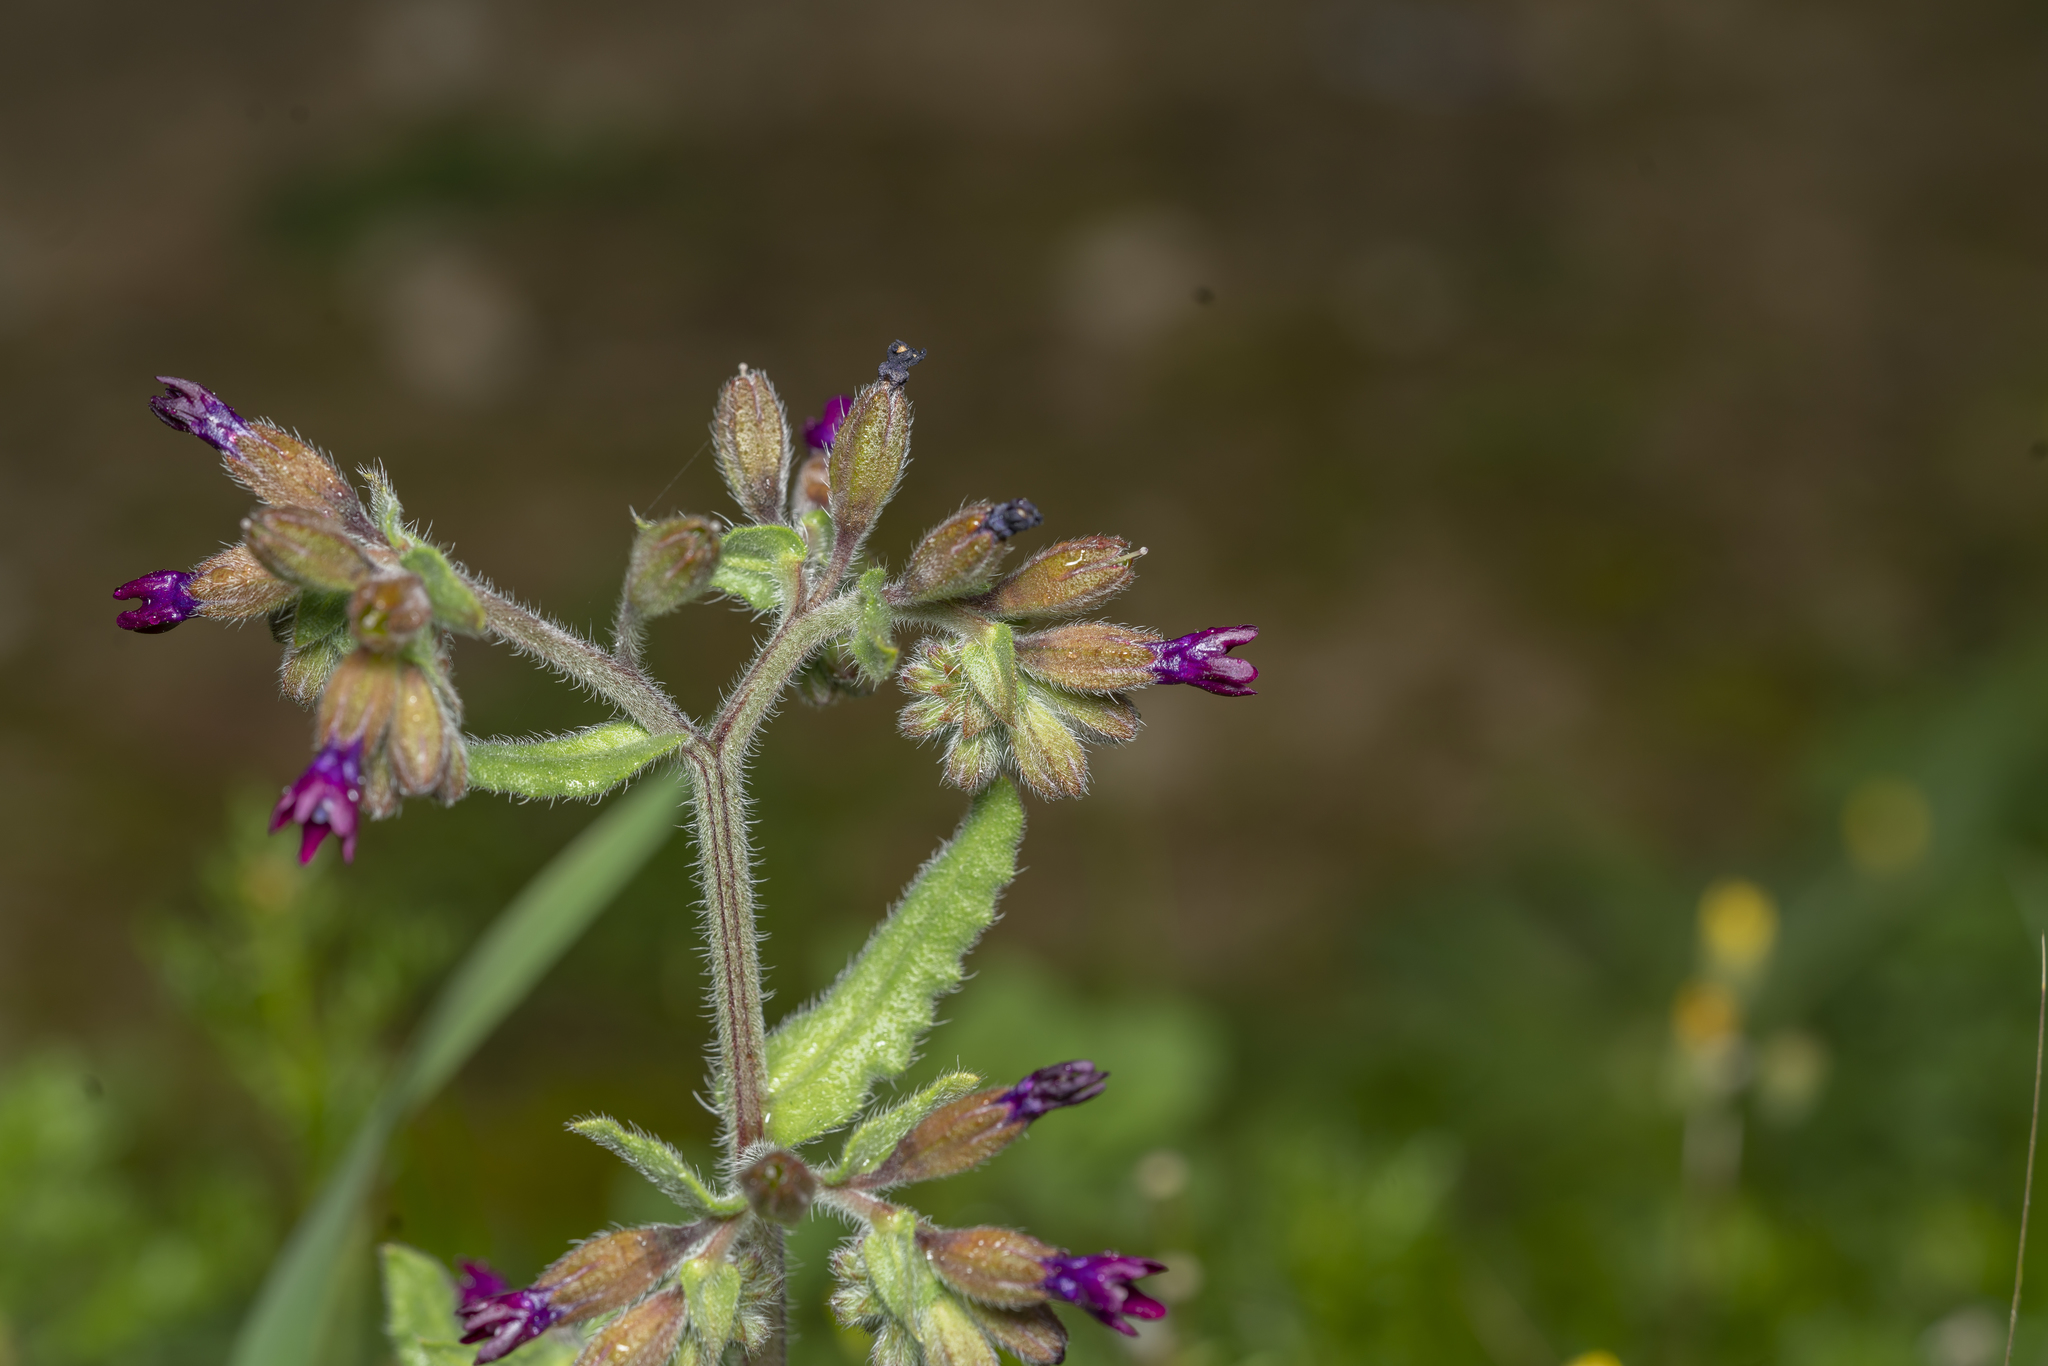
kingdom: Plantae
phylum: Tracheophyta
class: Magnoliopsida
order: Boraginales
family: Boraginaceae
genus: Anchusa
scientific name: Anchusa hybrida
